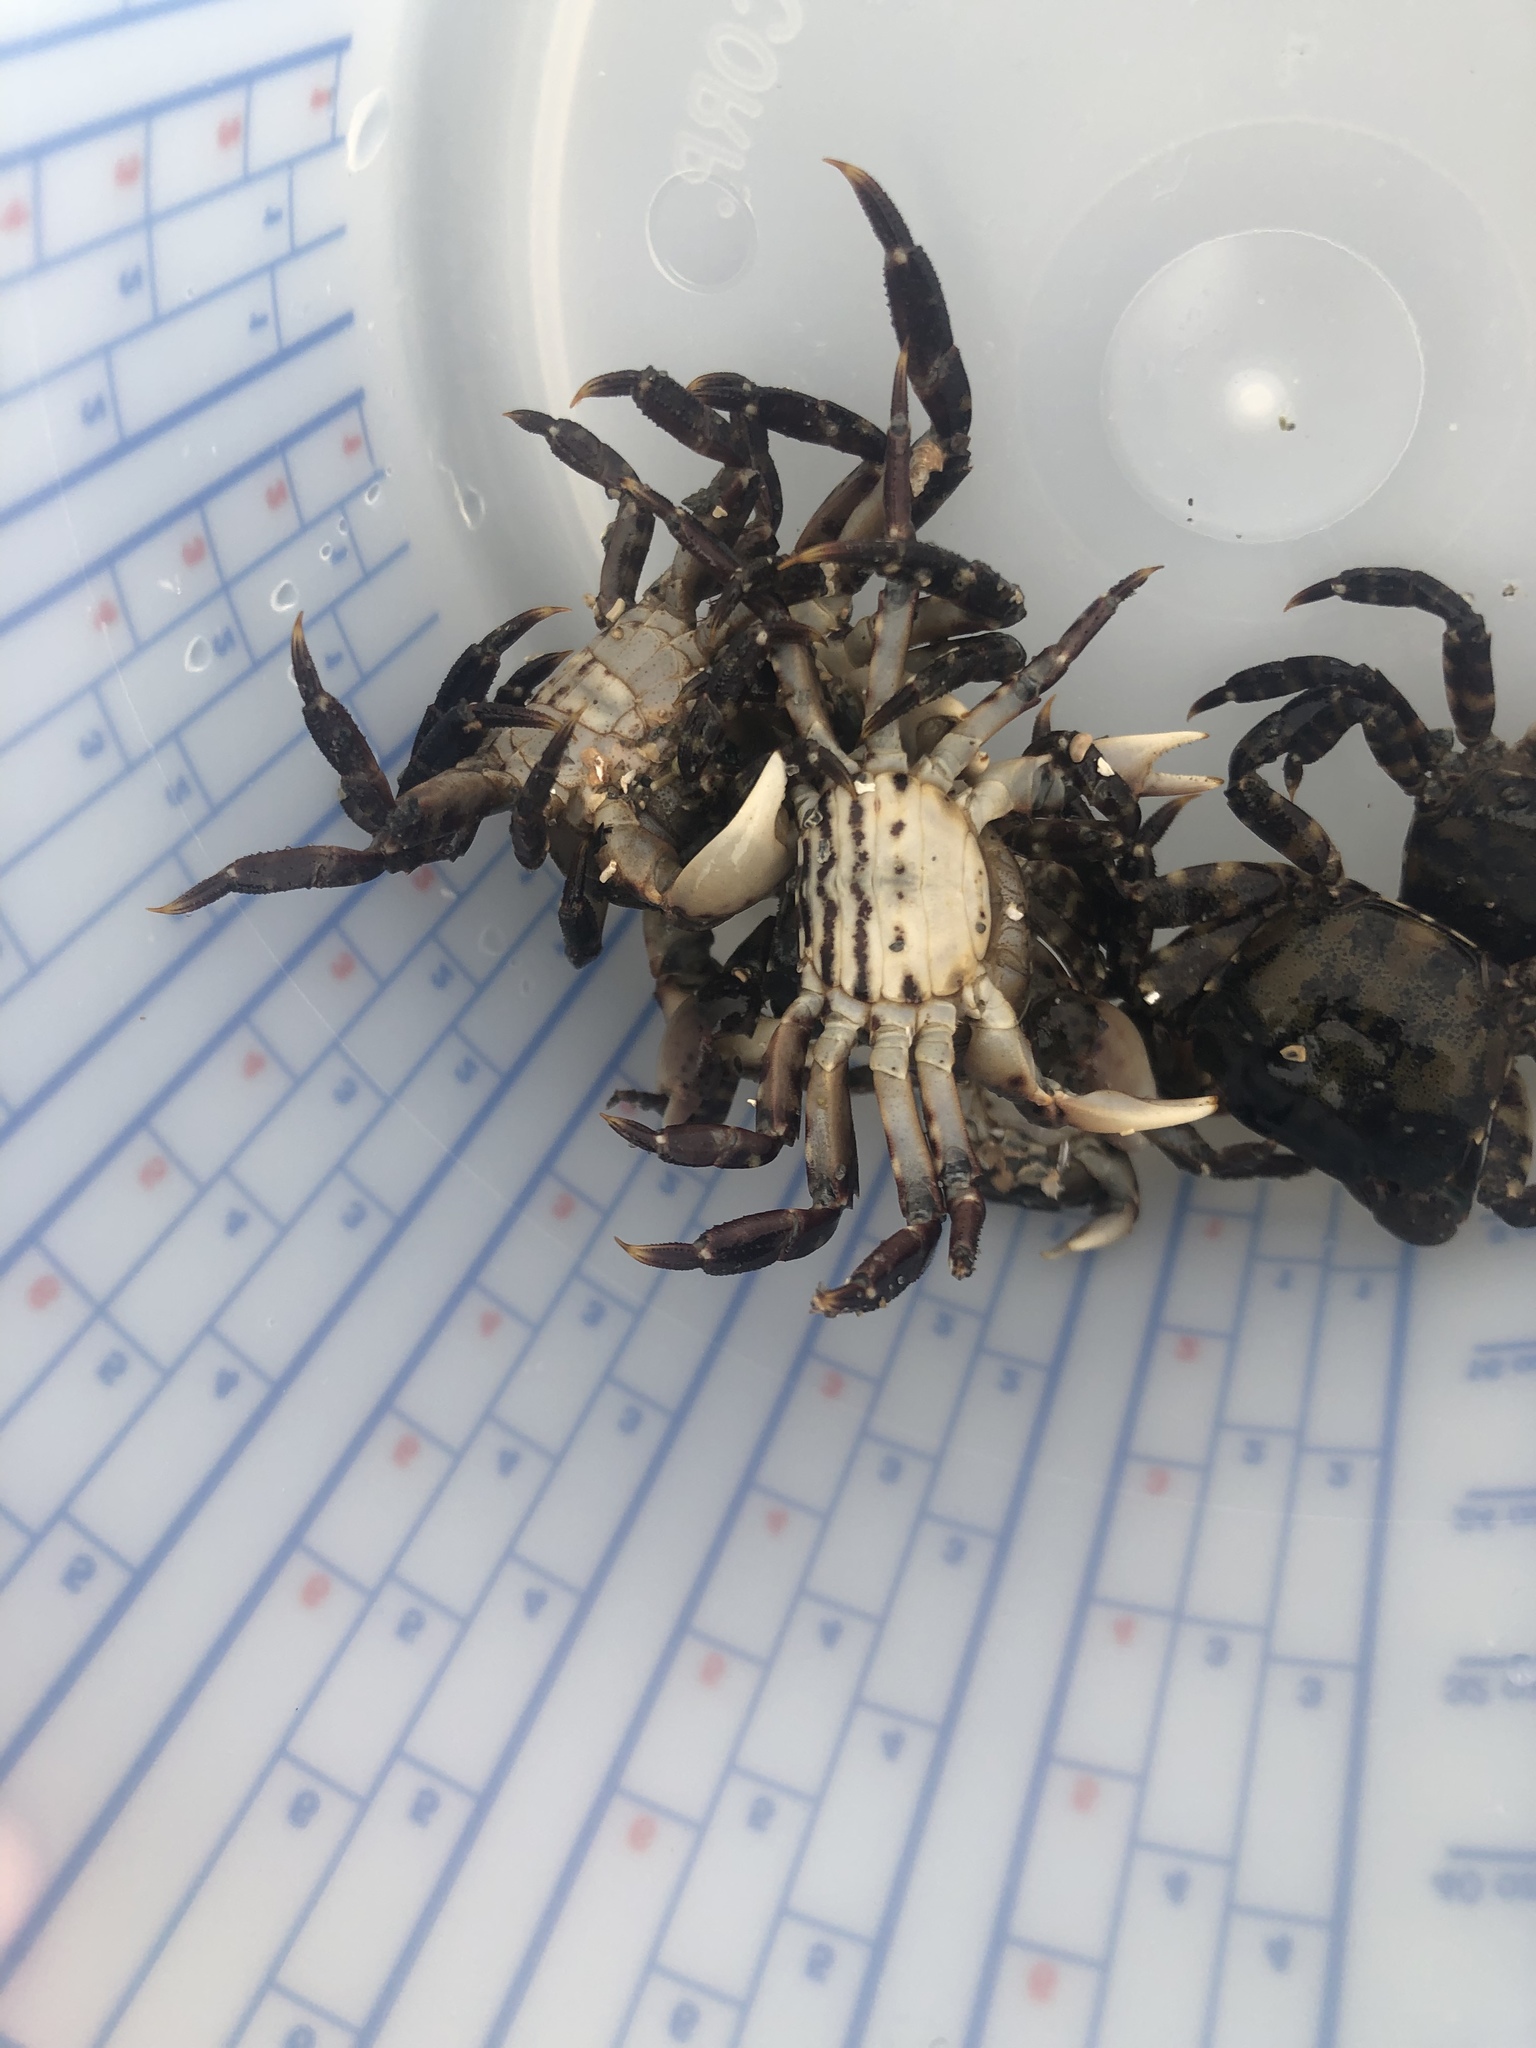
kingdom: Animalia
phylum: Arthropoda
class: Malacostraca
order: Decapoda
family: Varunidae
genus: Hemigrapsus
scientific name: Hemigrapsus sanguineus
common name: Asian shore crab
